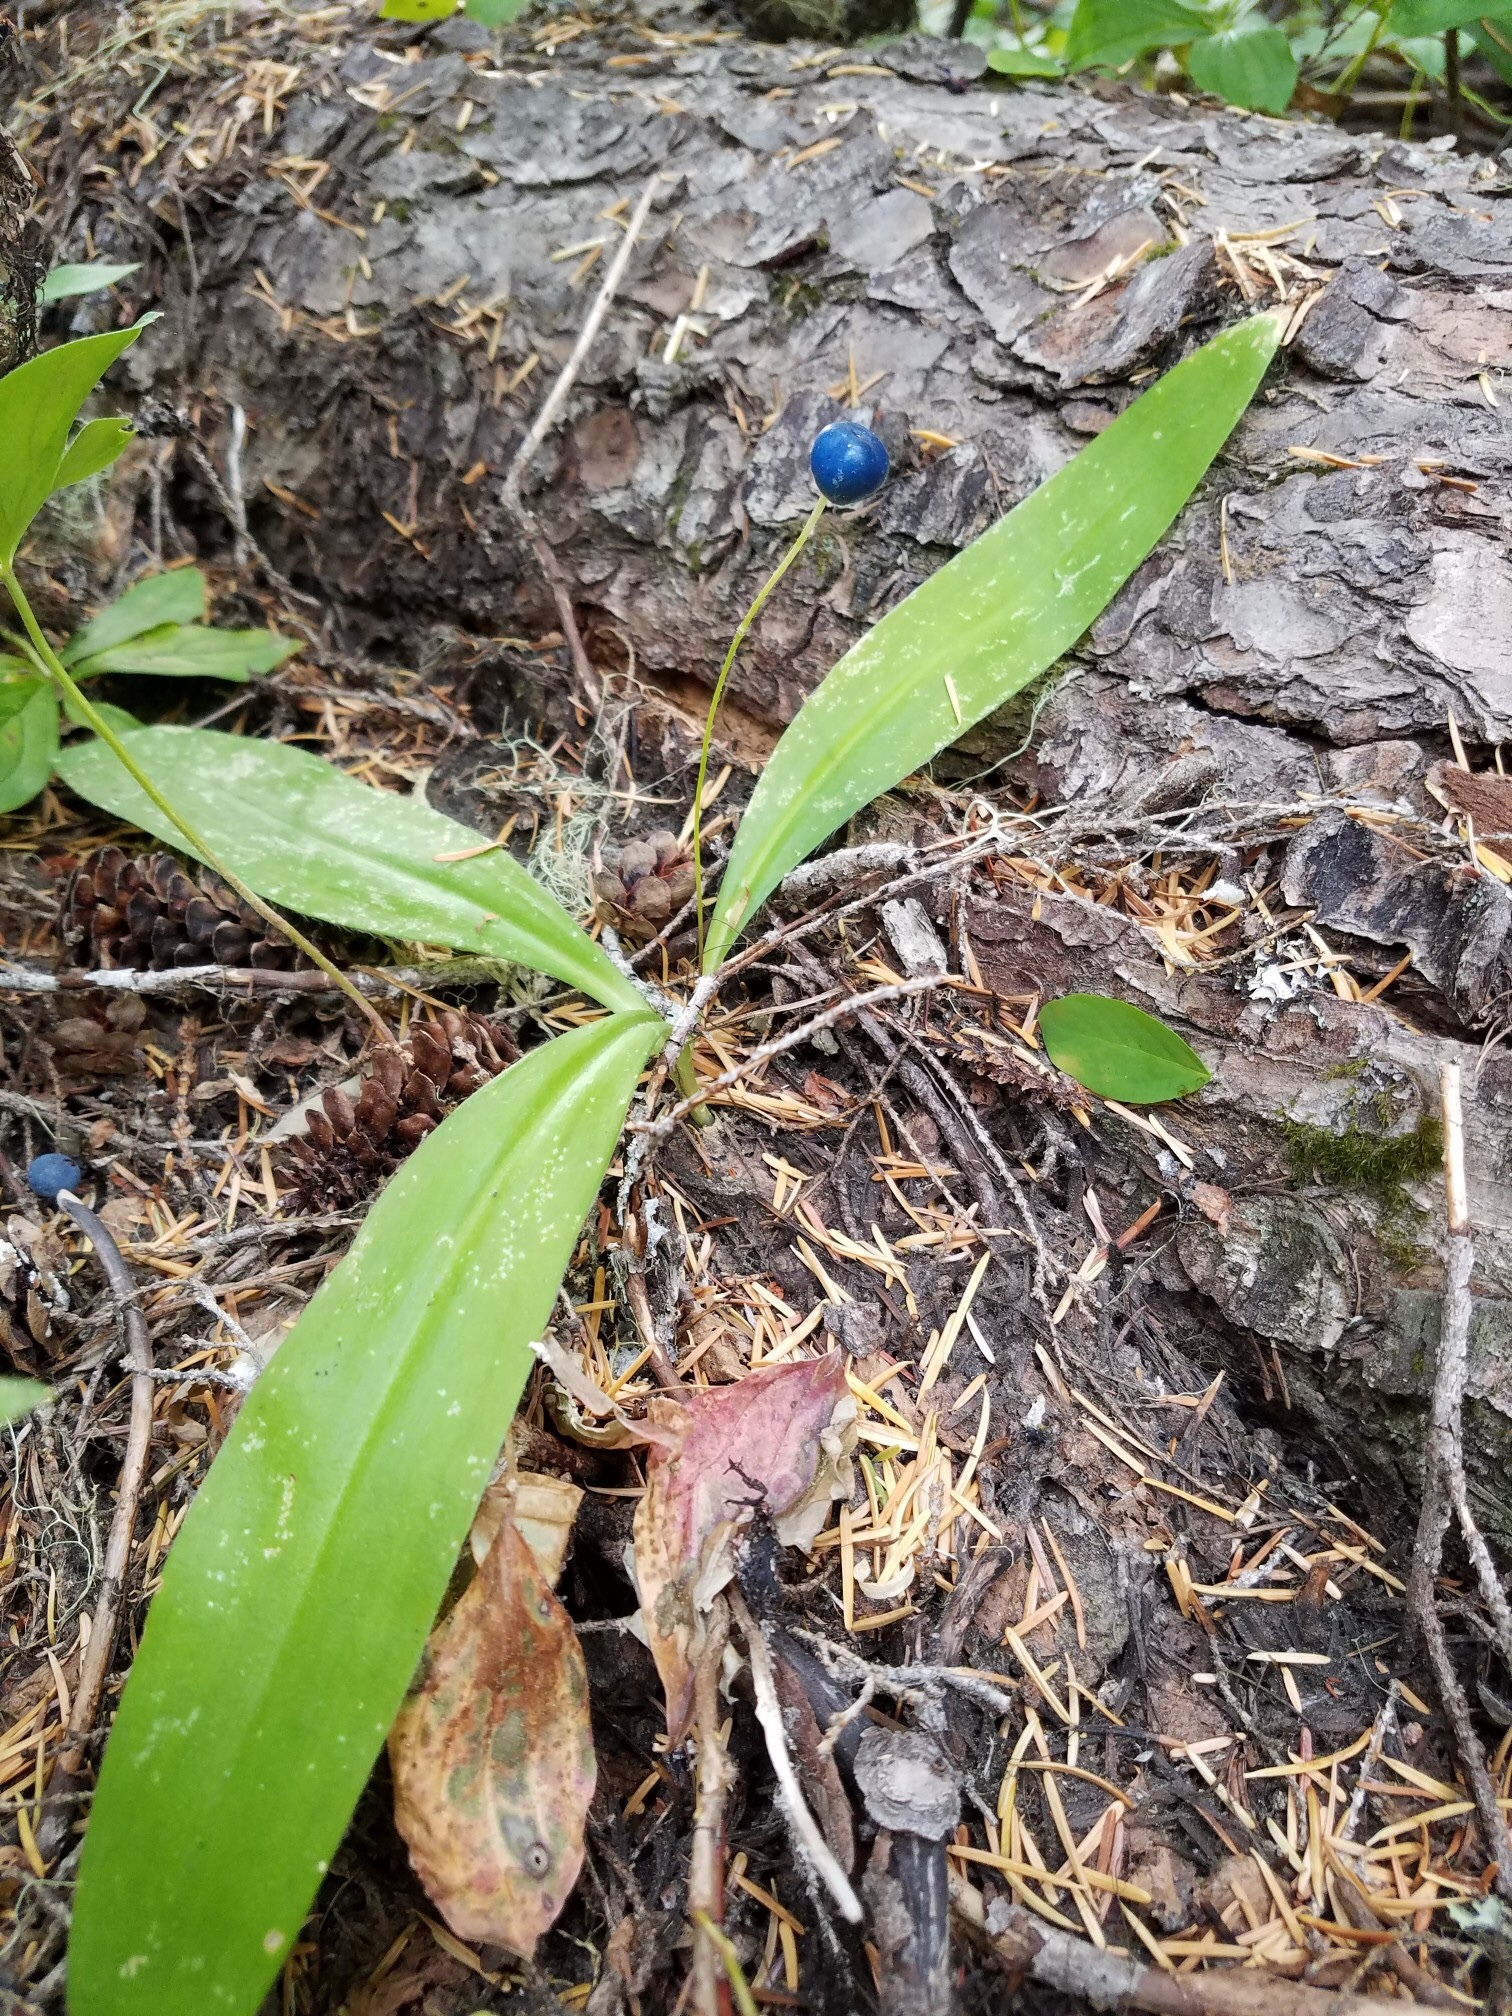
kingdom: Plantae
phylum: Tracheophyta
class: Liliopsida
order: Liliales
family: Liliaceae
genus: Clintonia
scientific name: Clintonia uniflora
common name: Queen's cup
